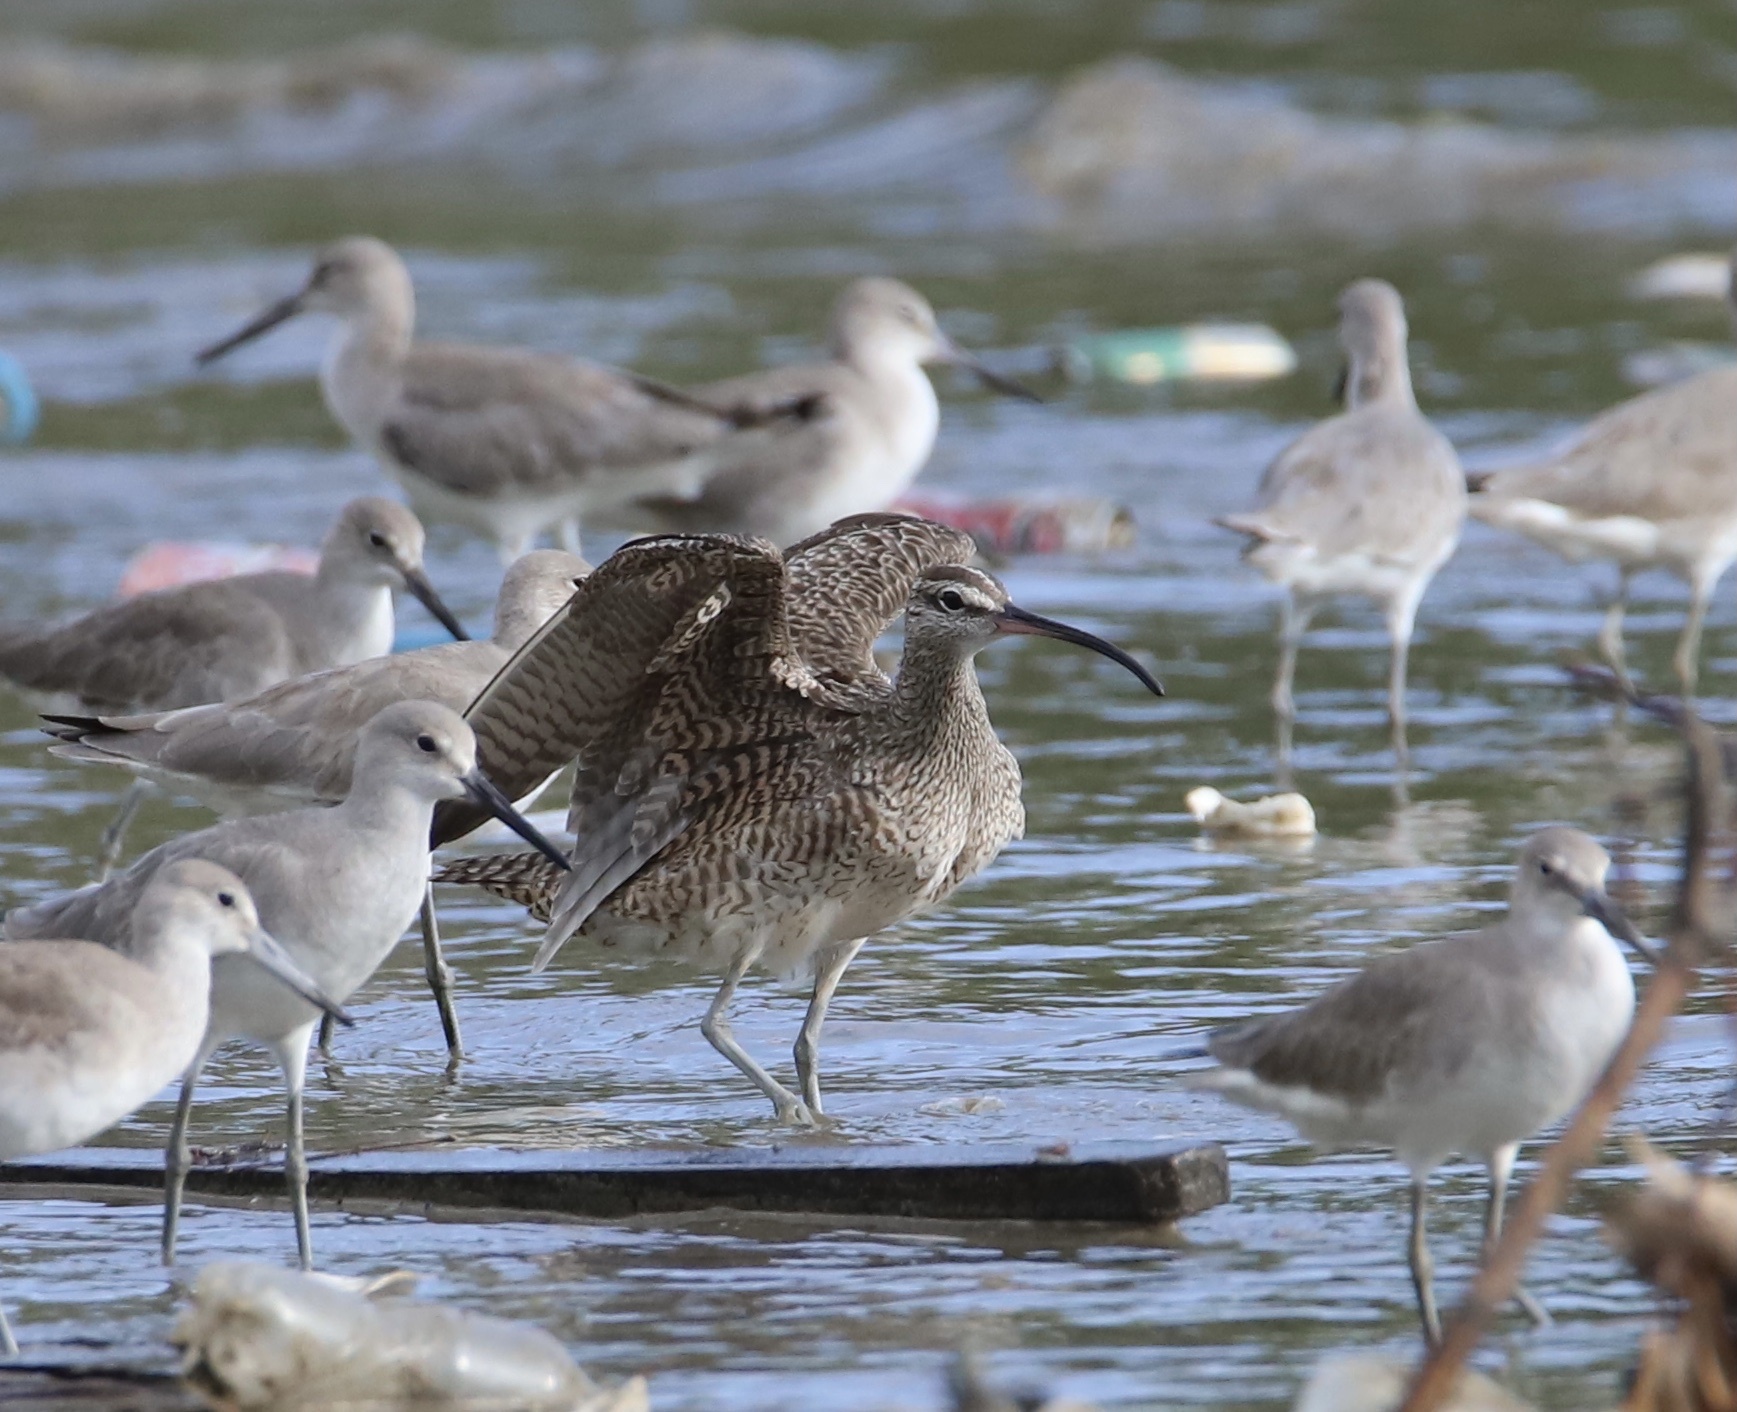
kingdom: Animalia
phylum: Chordata
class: Aves
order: Charadriiformes
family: Scolopacidae
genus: Numenius
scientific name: Numenius phaeopus
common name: Whimbrel
